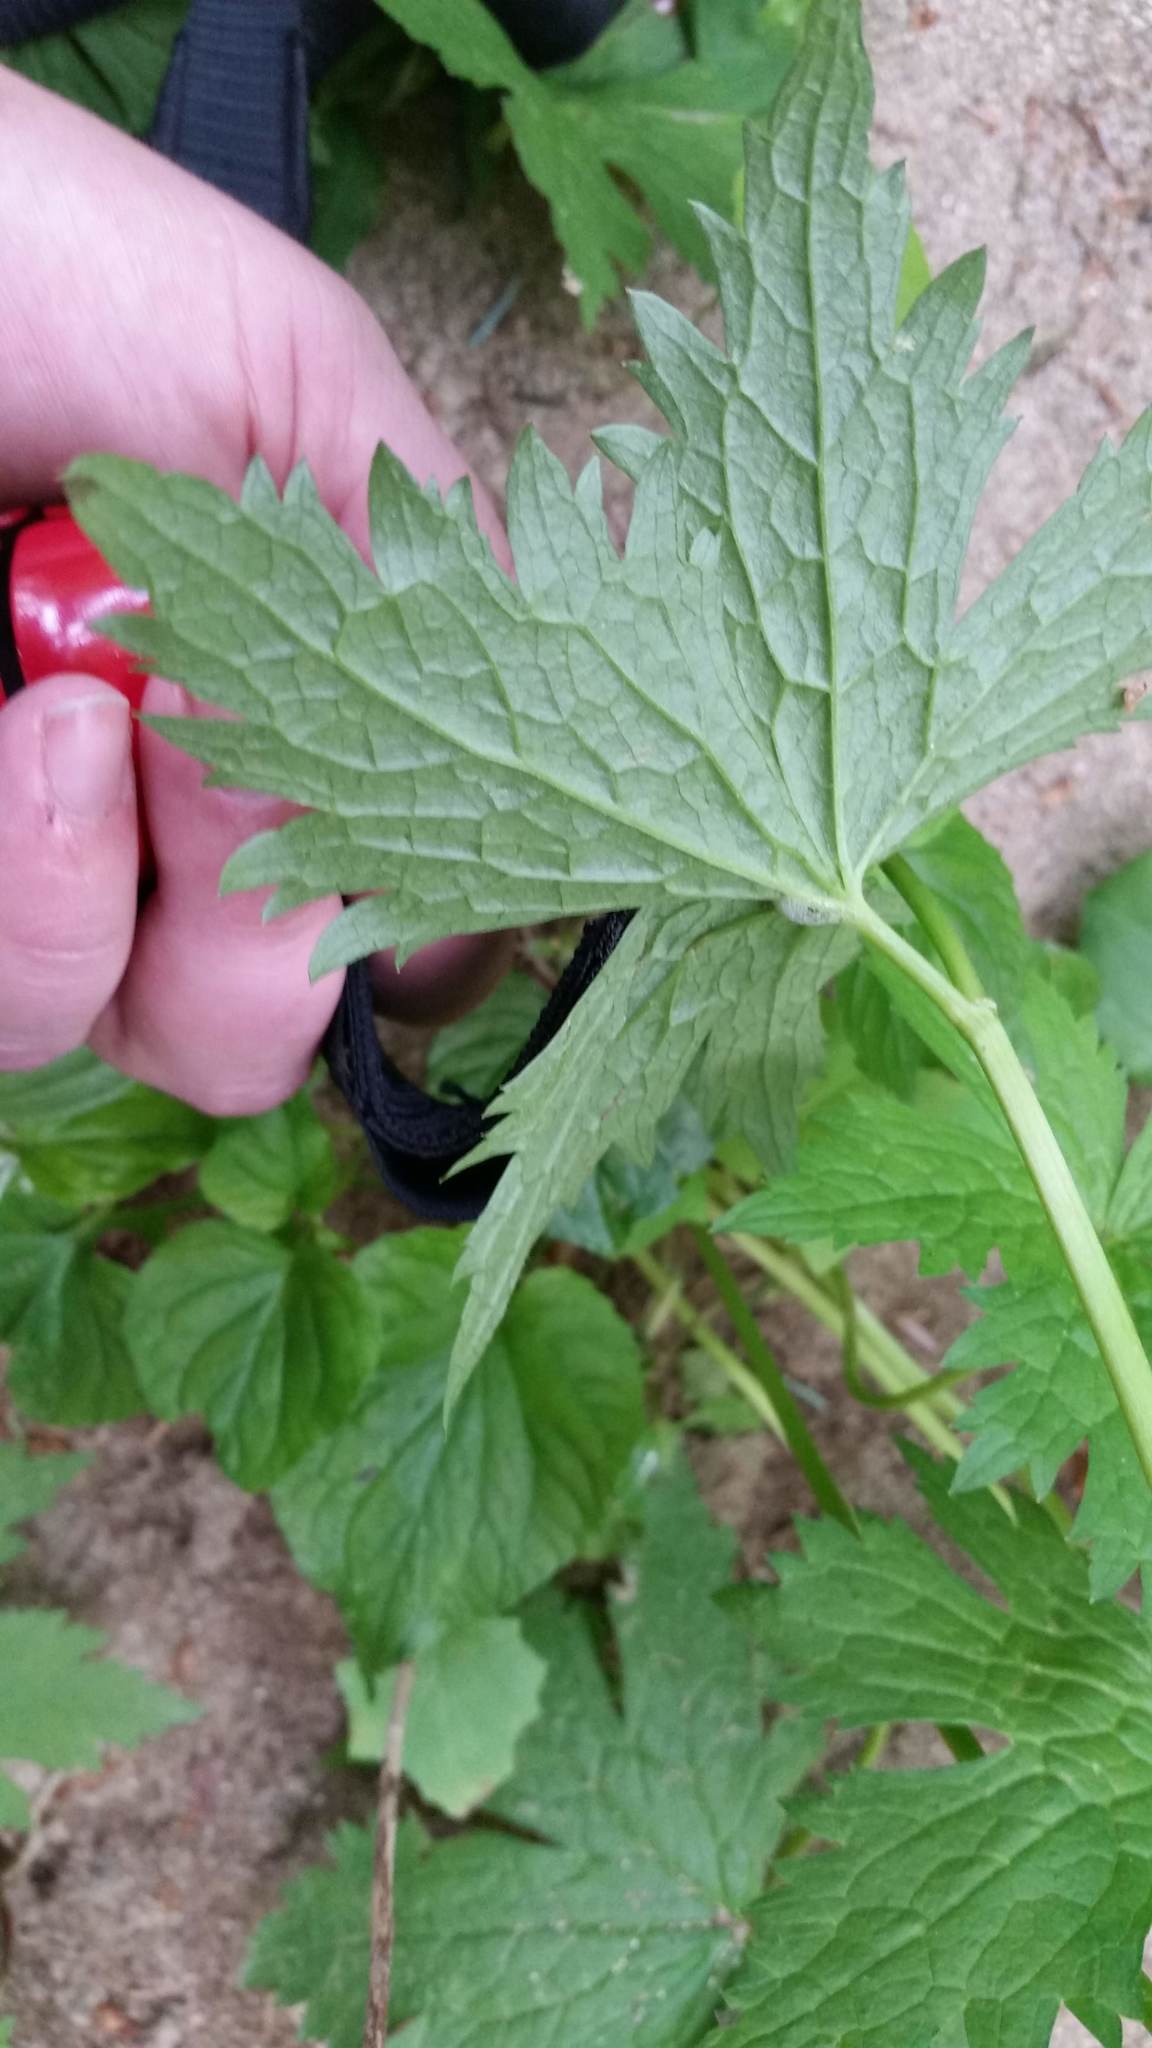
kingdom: Plantae
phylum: Tracheophyta
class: Magnoliopsida
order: Ranunculales
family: Ranunculaceae
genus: Trautvetteria
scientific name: Trautvetteria carolinensis
